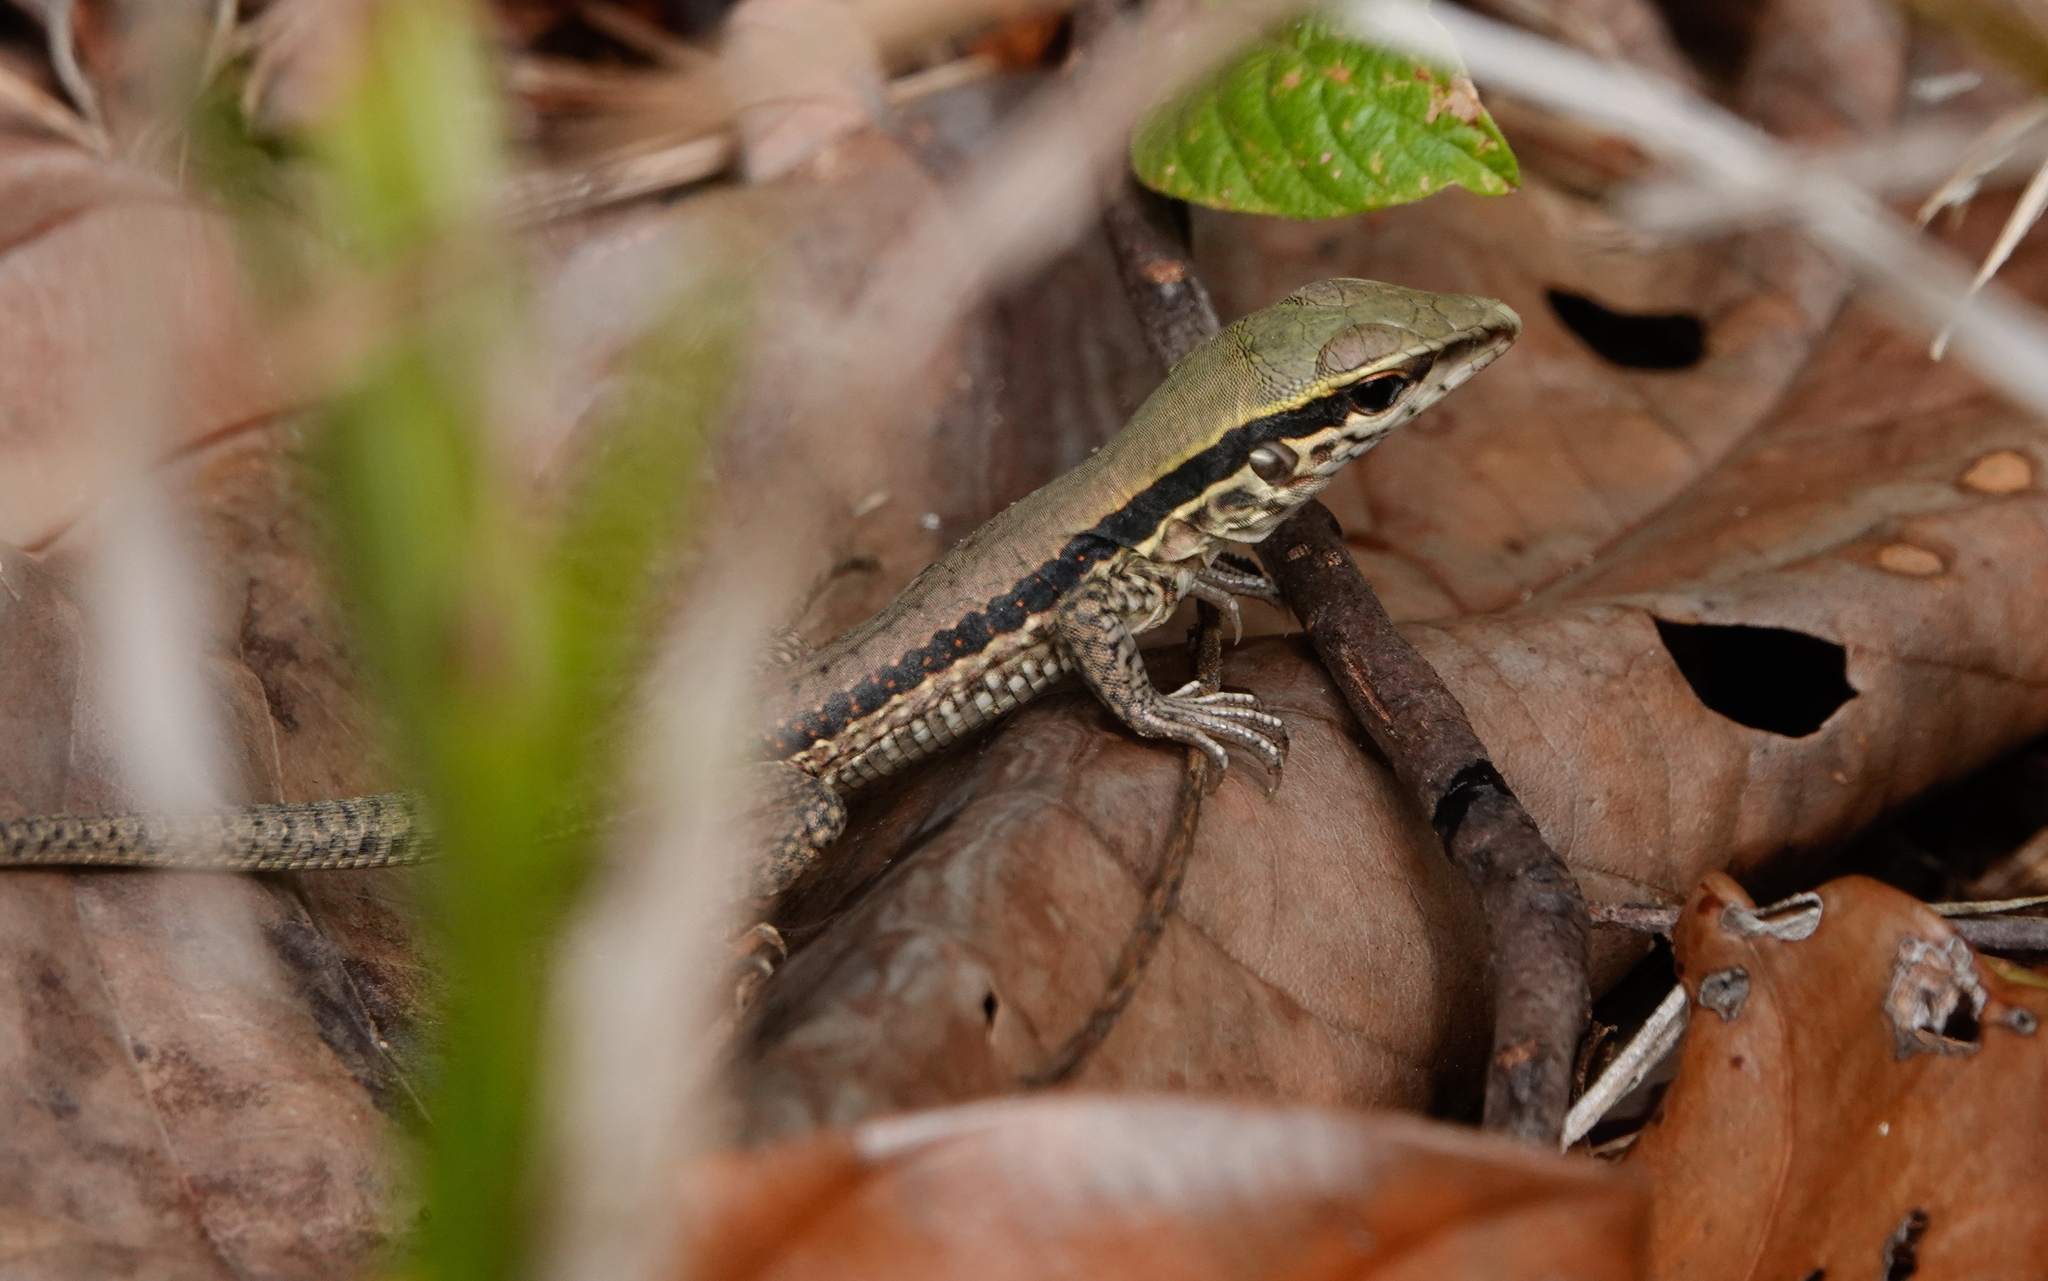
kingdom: Animalia
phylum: Chordata
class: Squamata
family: Teiidae
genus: Ameiva
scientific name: Ameiva ameiva
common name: Giant ameiva
